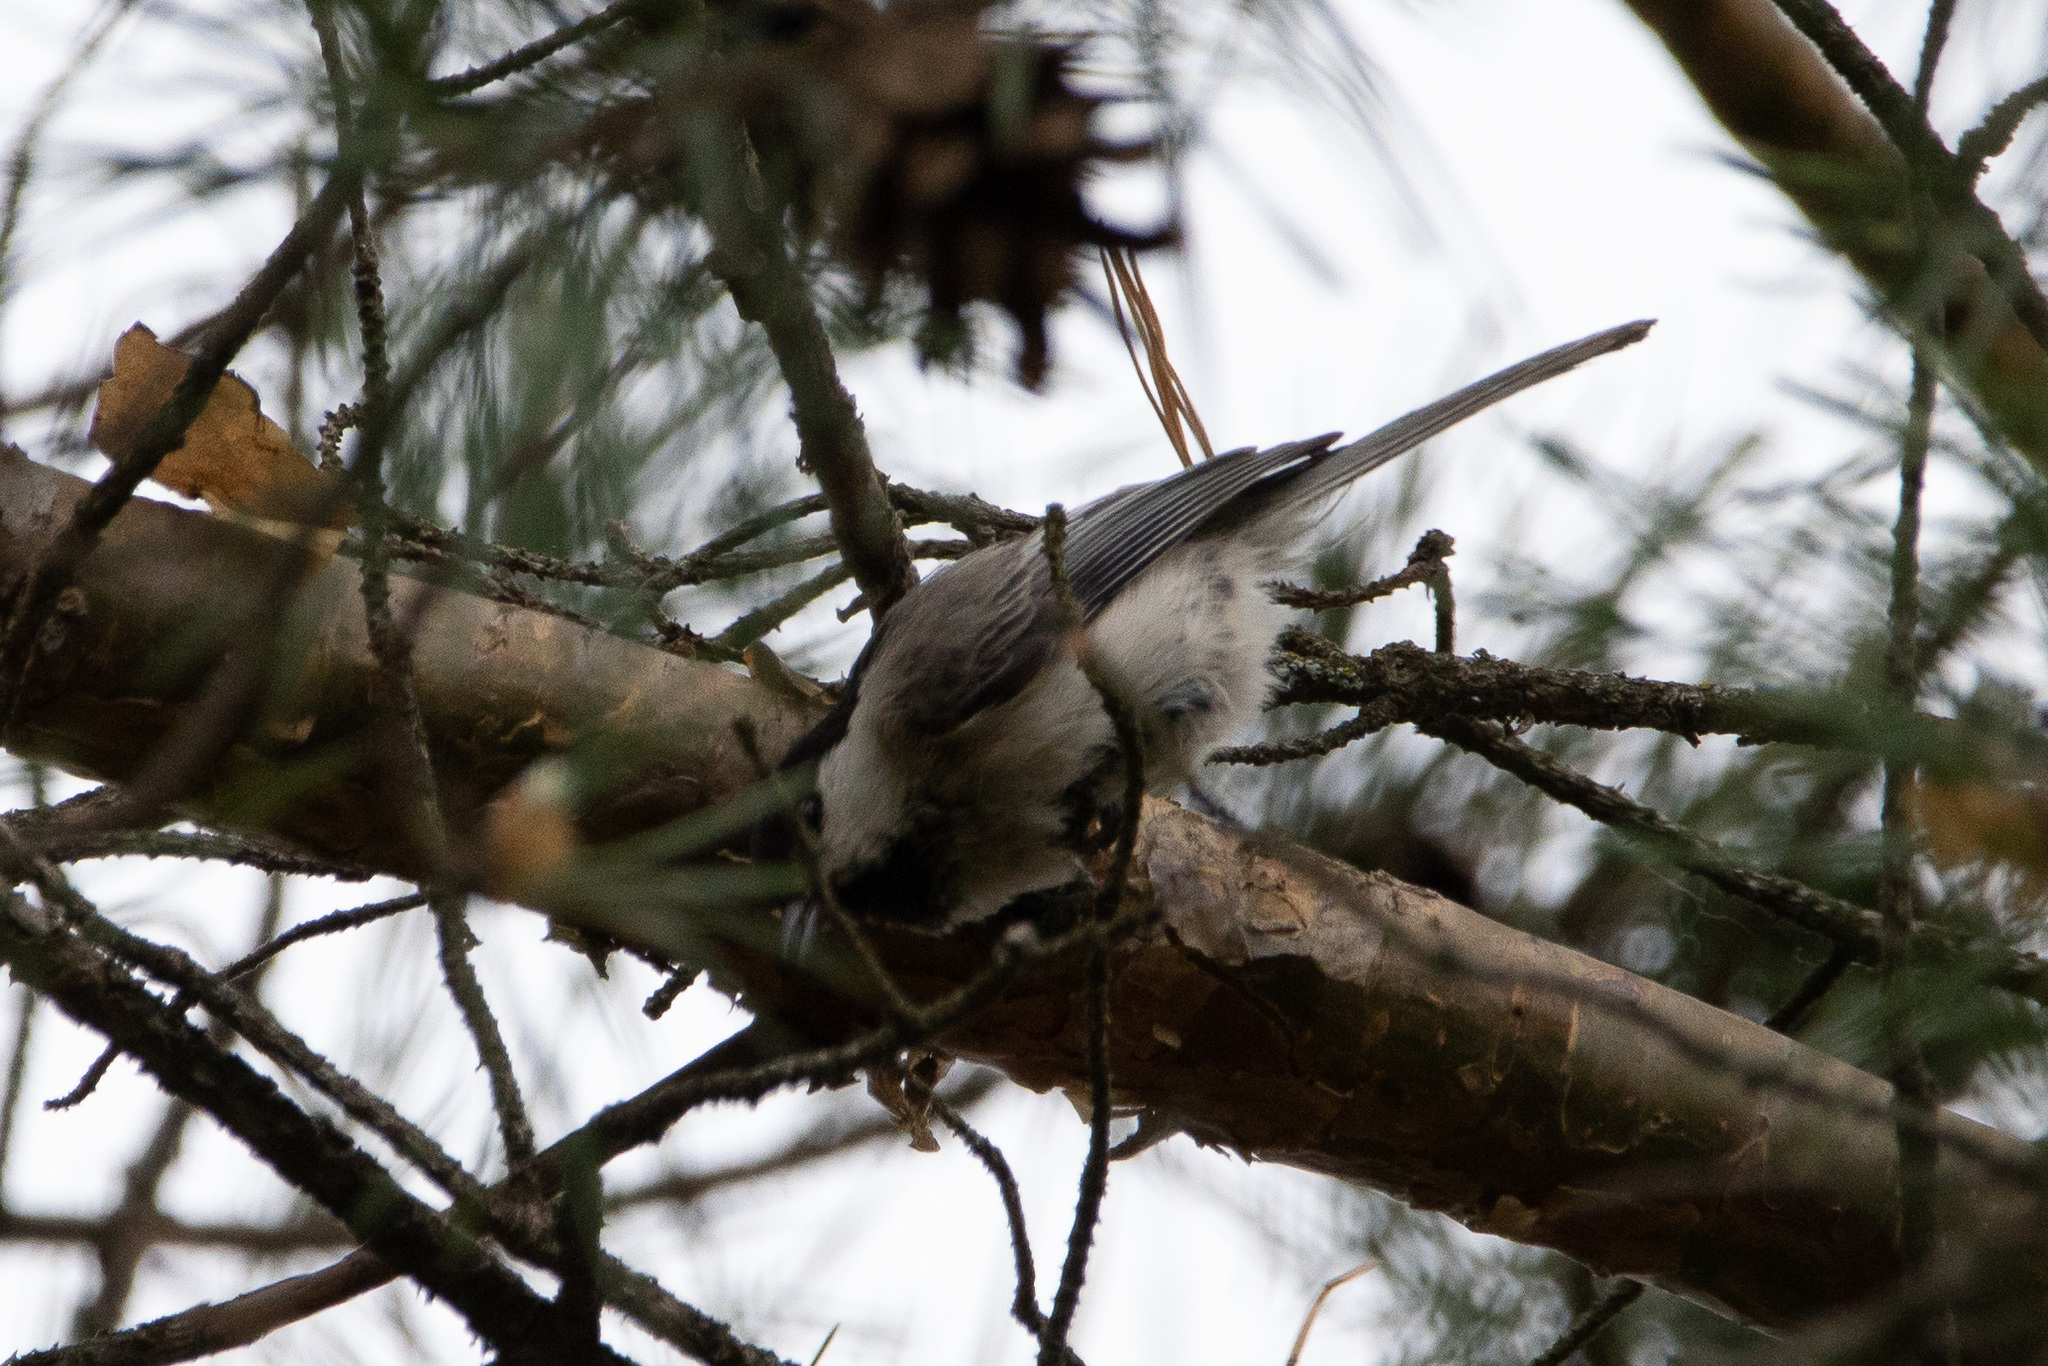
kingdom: Animalia
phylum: Chordata
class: Aves
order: Passeriformes
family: Paridae
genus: Poecile
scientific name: Poecile montanus
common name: Willow tit
